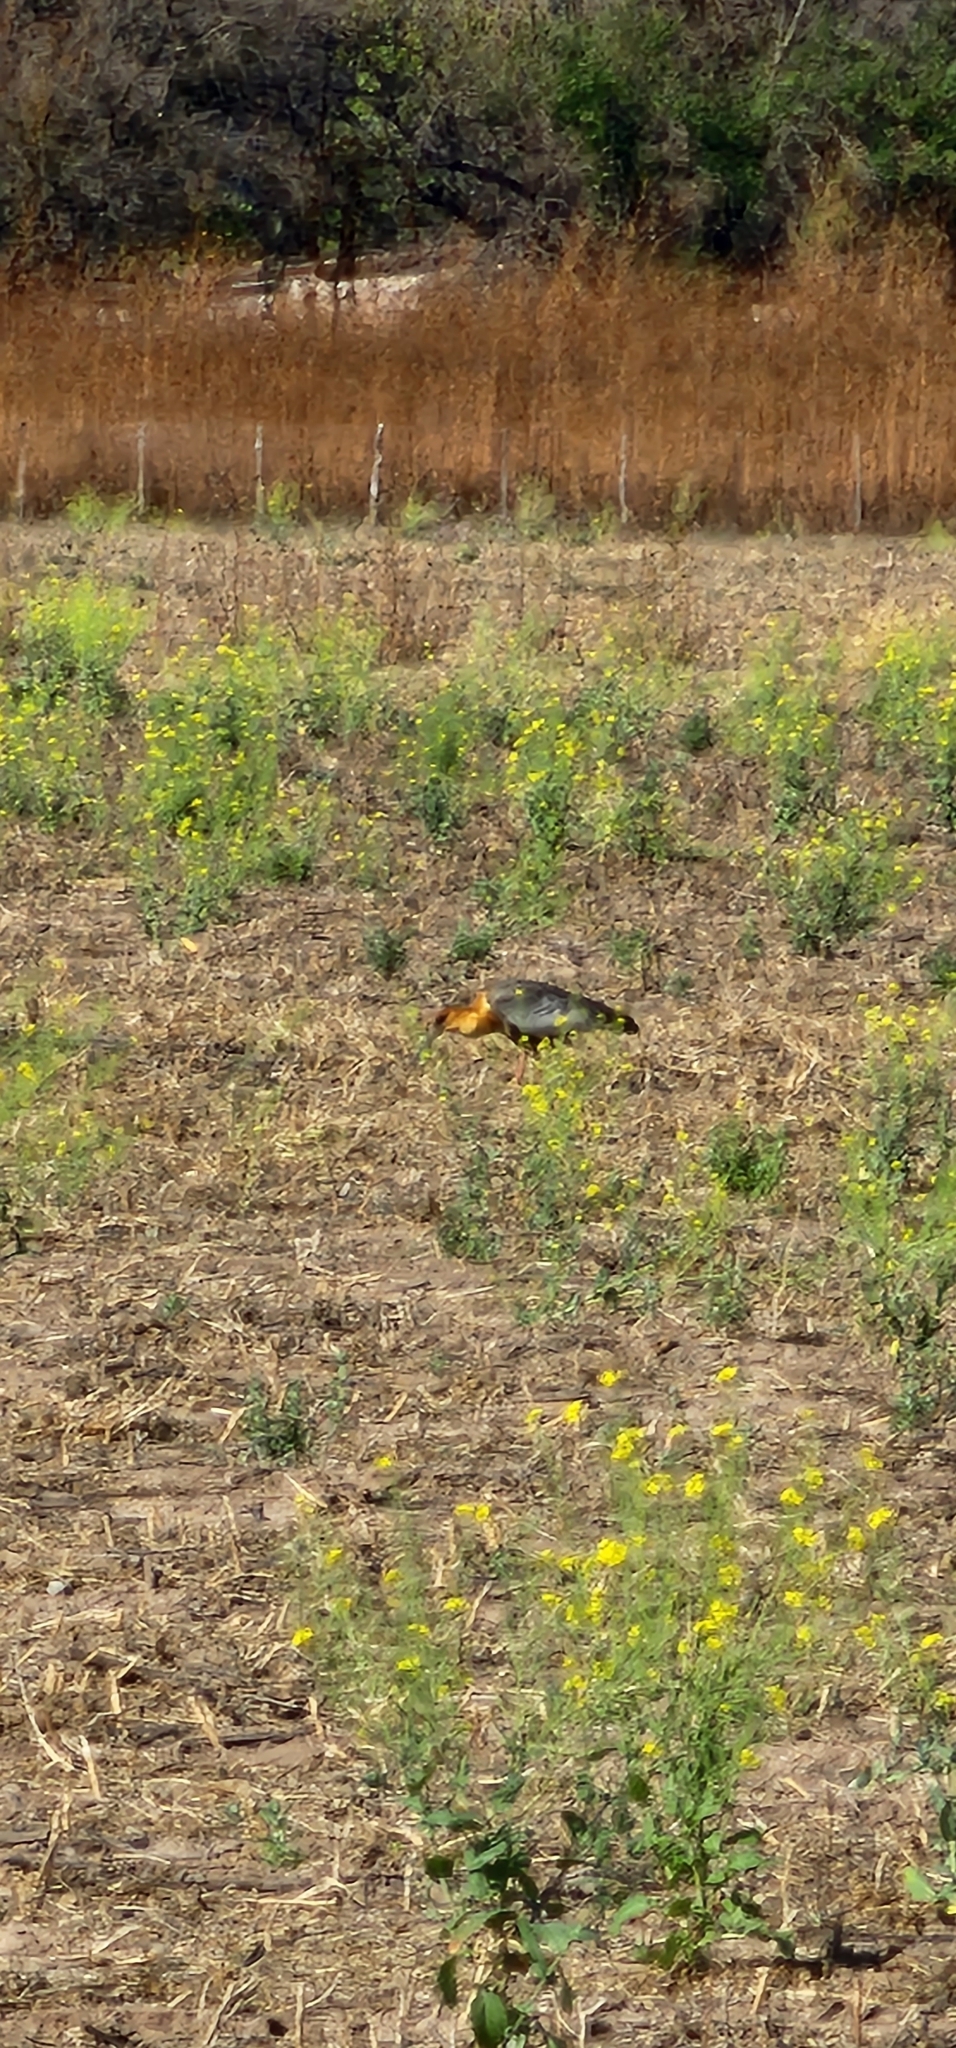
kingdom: Animalia
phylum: Chordata
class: Aves
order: Pelecaniformes
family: Threskiornithidae
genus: Theristicus
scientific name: Theristicus caudatus
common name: Buff-necked ibis
